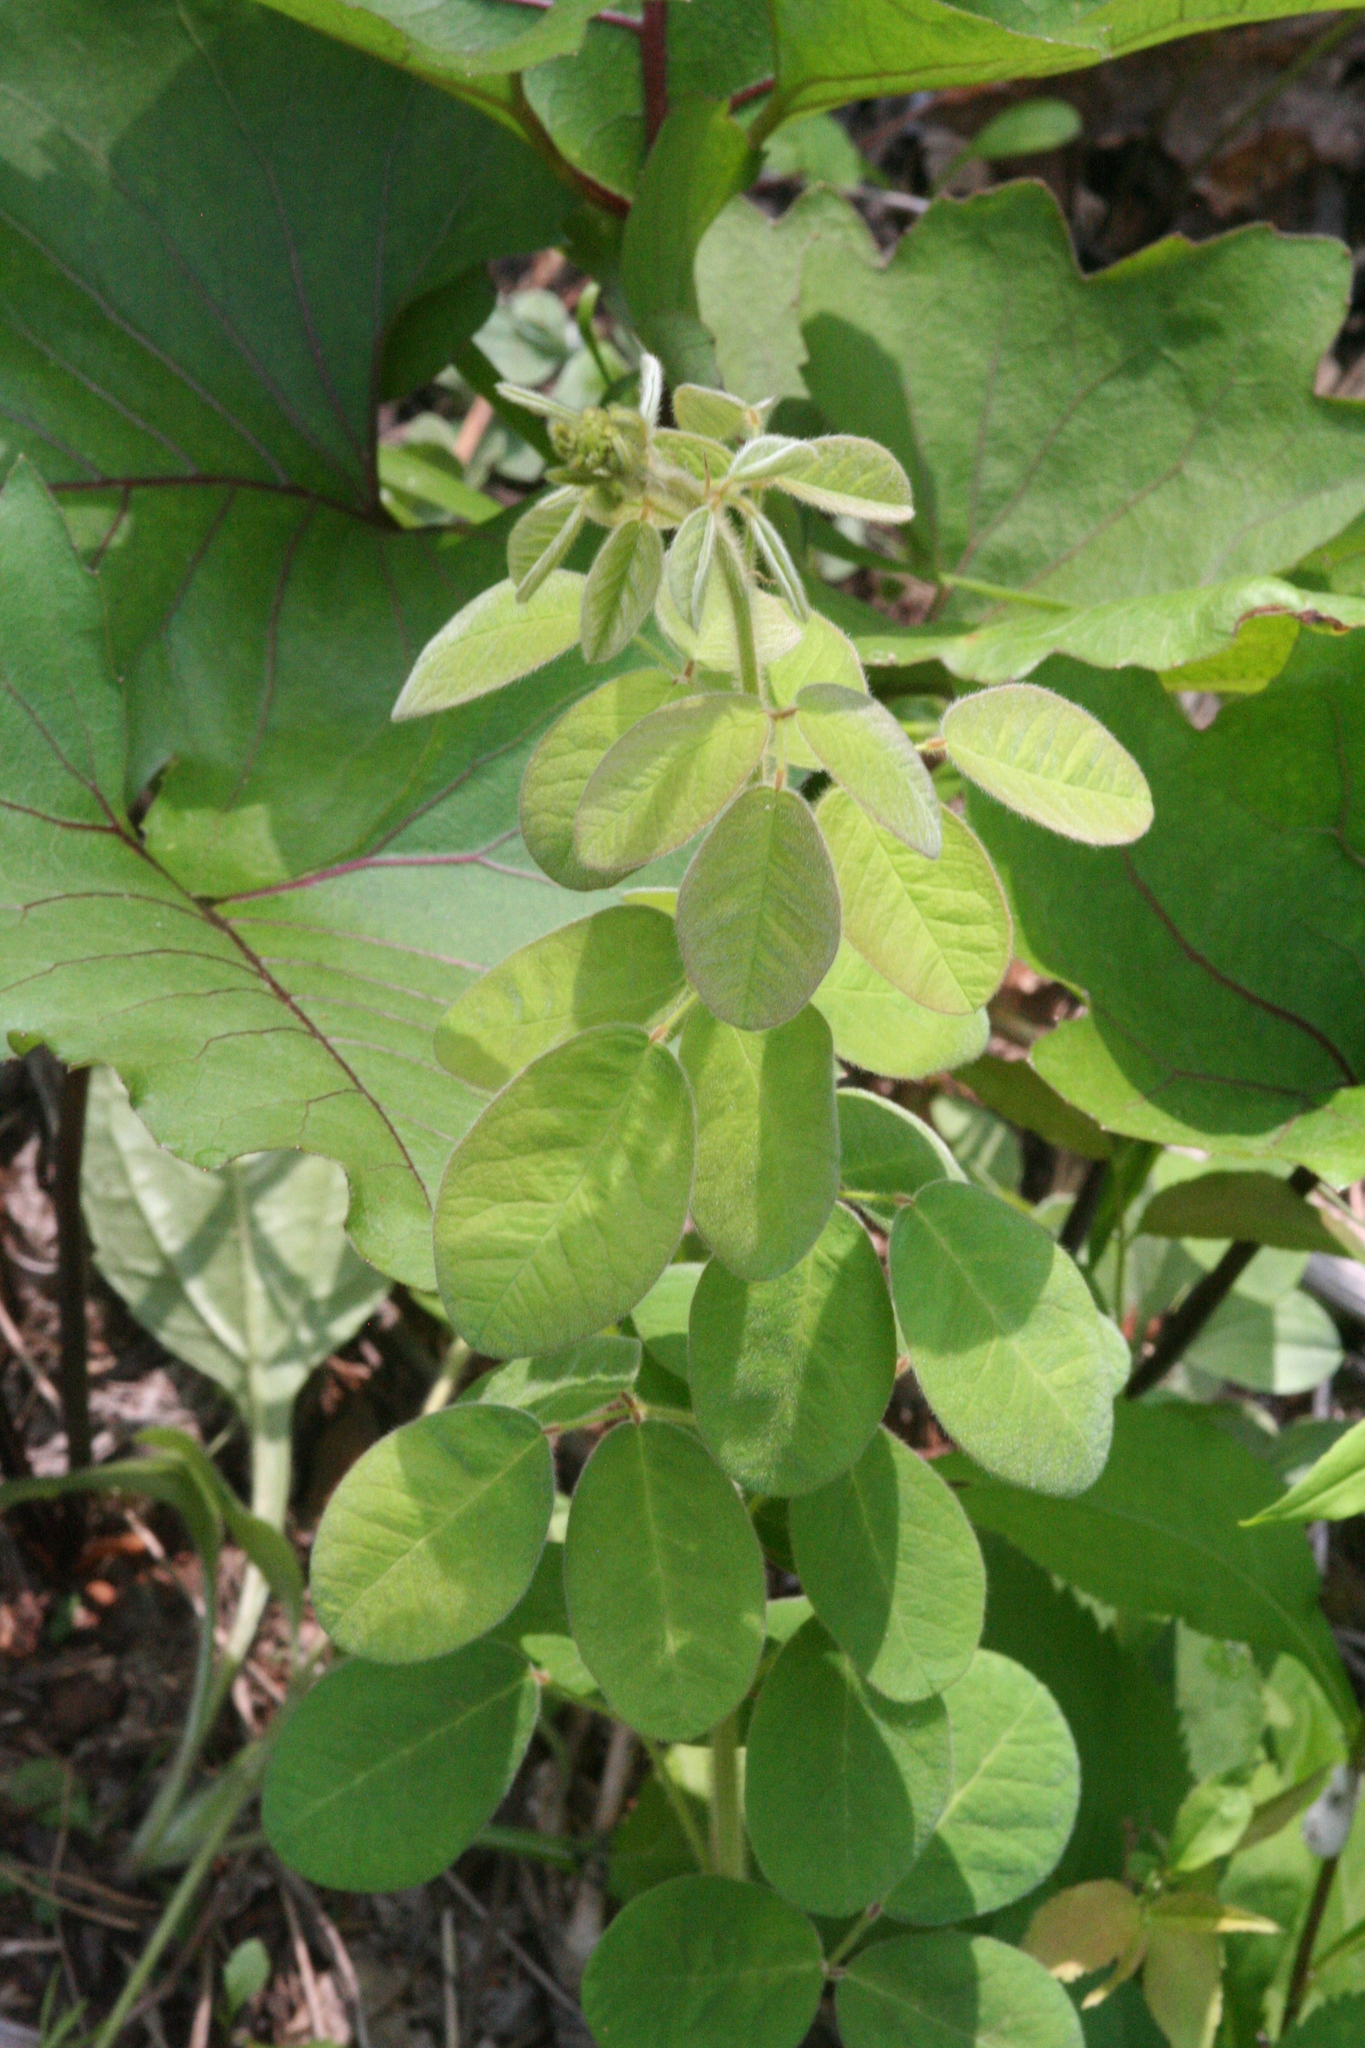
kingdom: Plantae
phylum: Tracheophyta
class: Magnoliopsida
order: Fabales
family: Fabaceae
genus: Lespedeza
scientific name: Lespedeza hirta
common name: Hairy lespedeza
